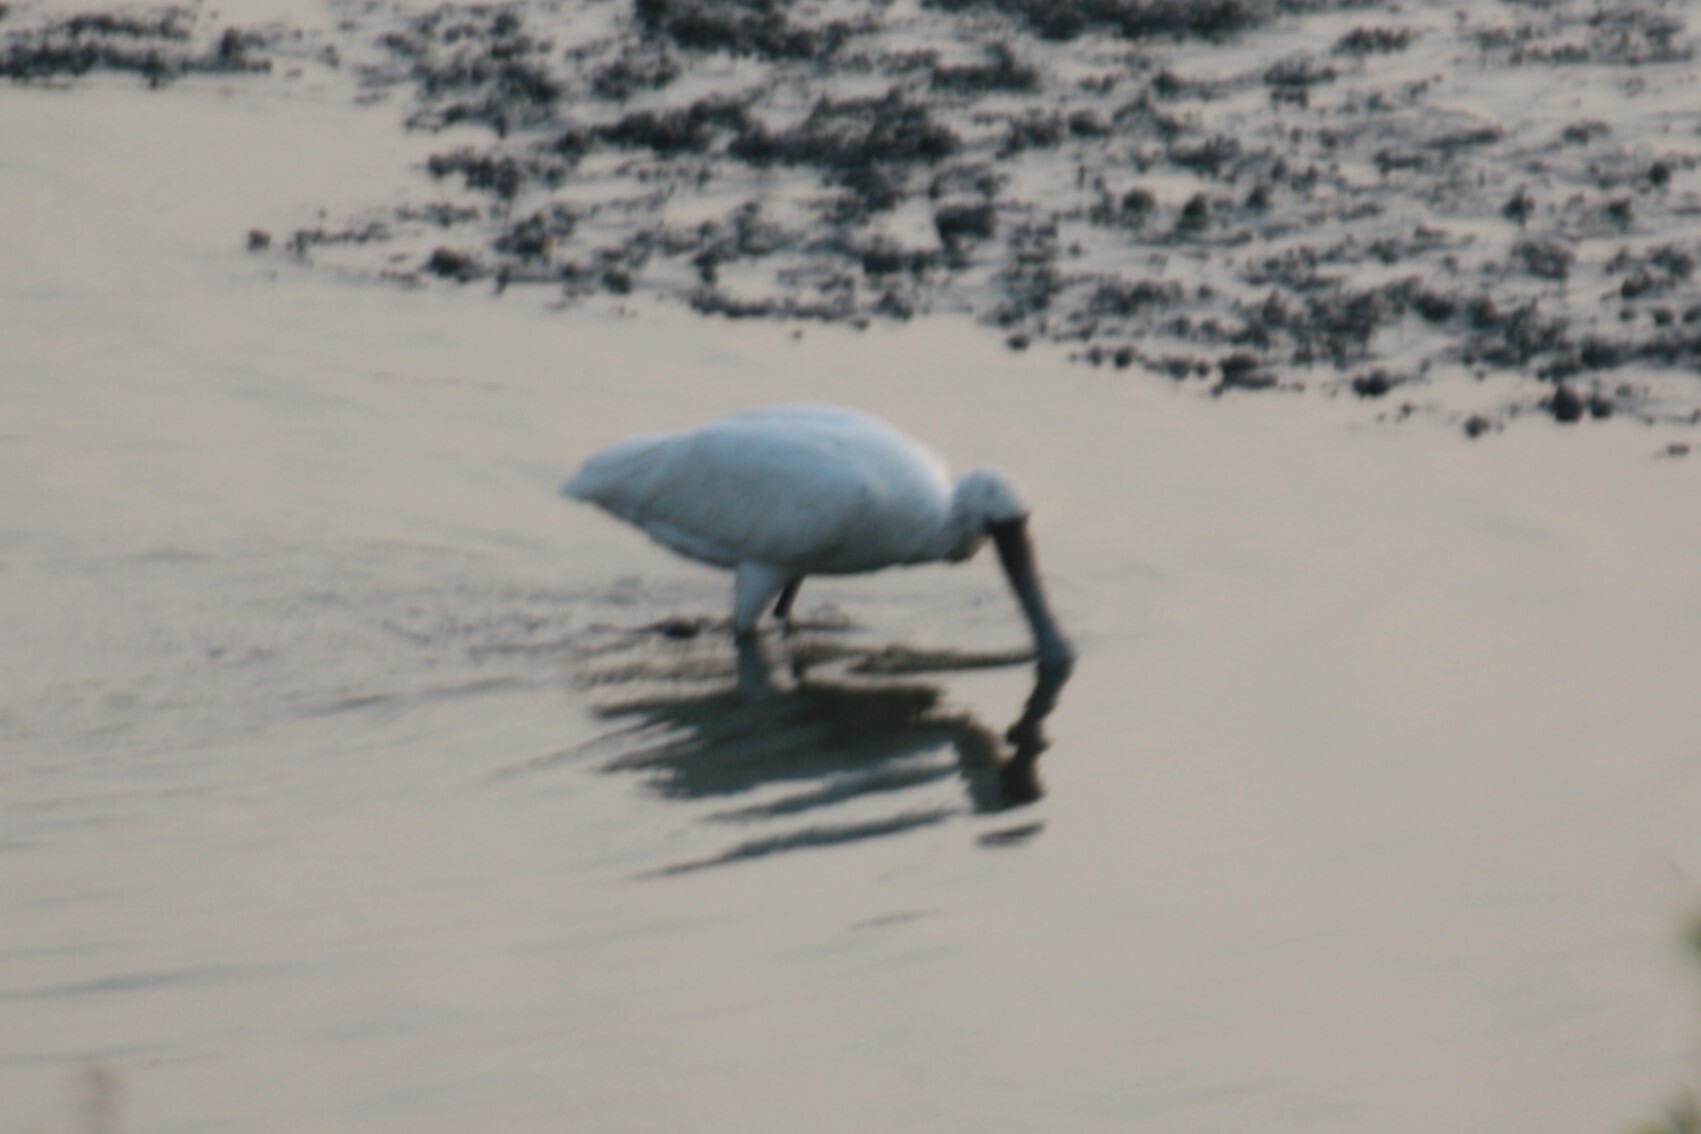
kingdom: Animalia
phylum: Chordata
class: Aves
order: Pelecaniformes
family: Threskiornithidae
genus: Platalea
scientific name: Platalea minor
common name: Black-faced spoonbill
